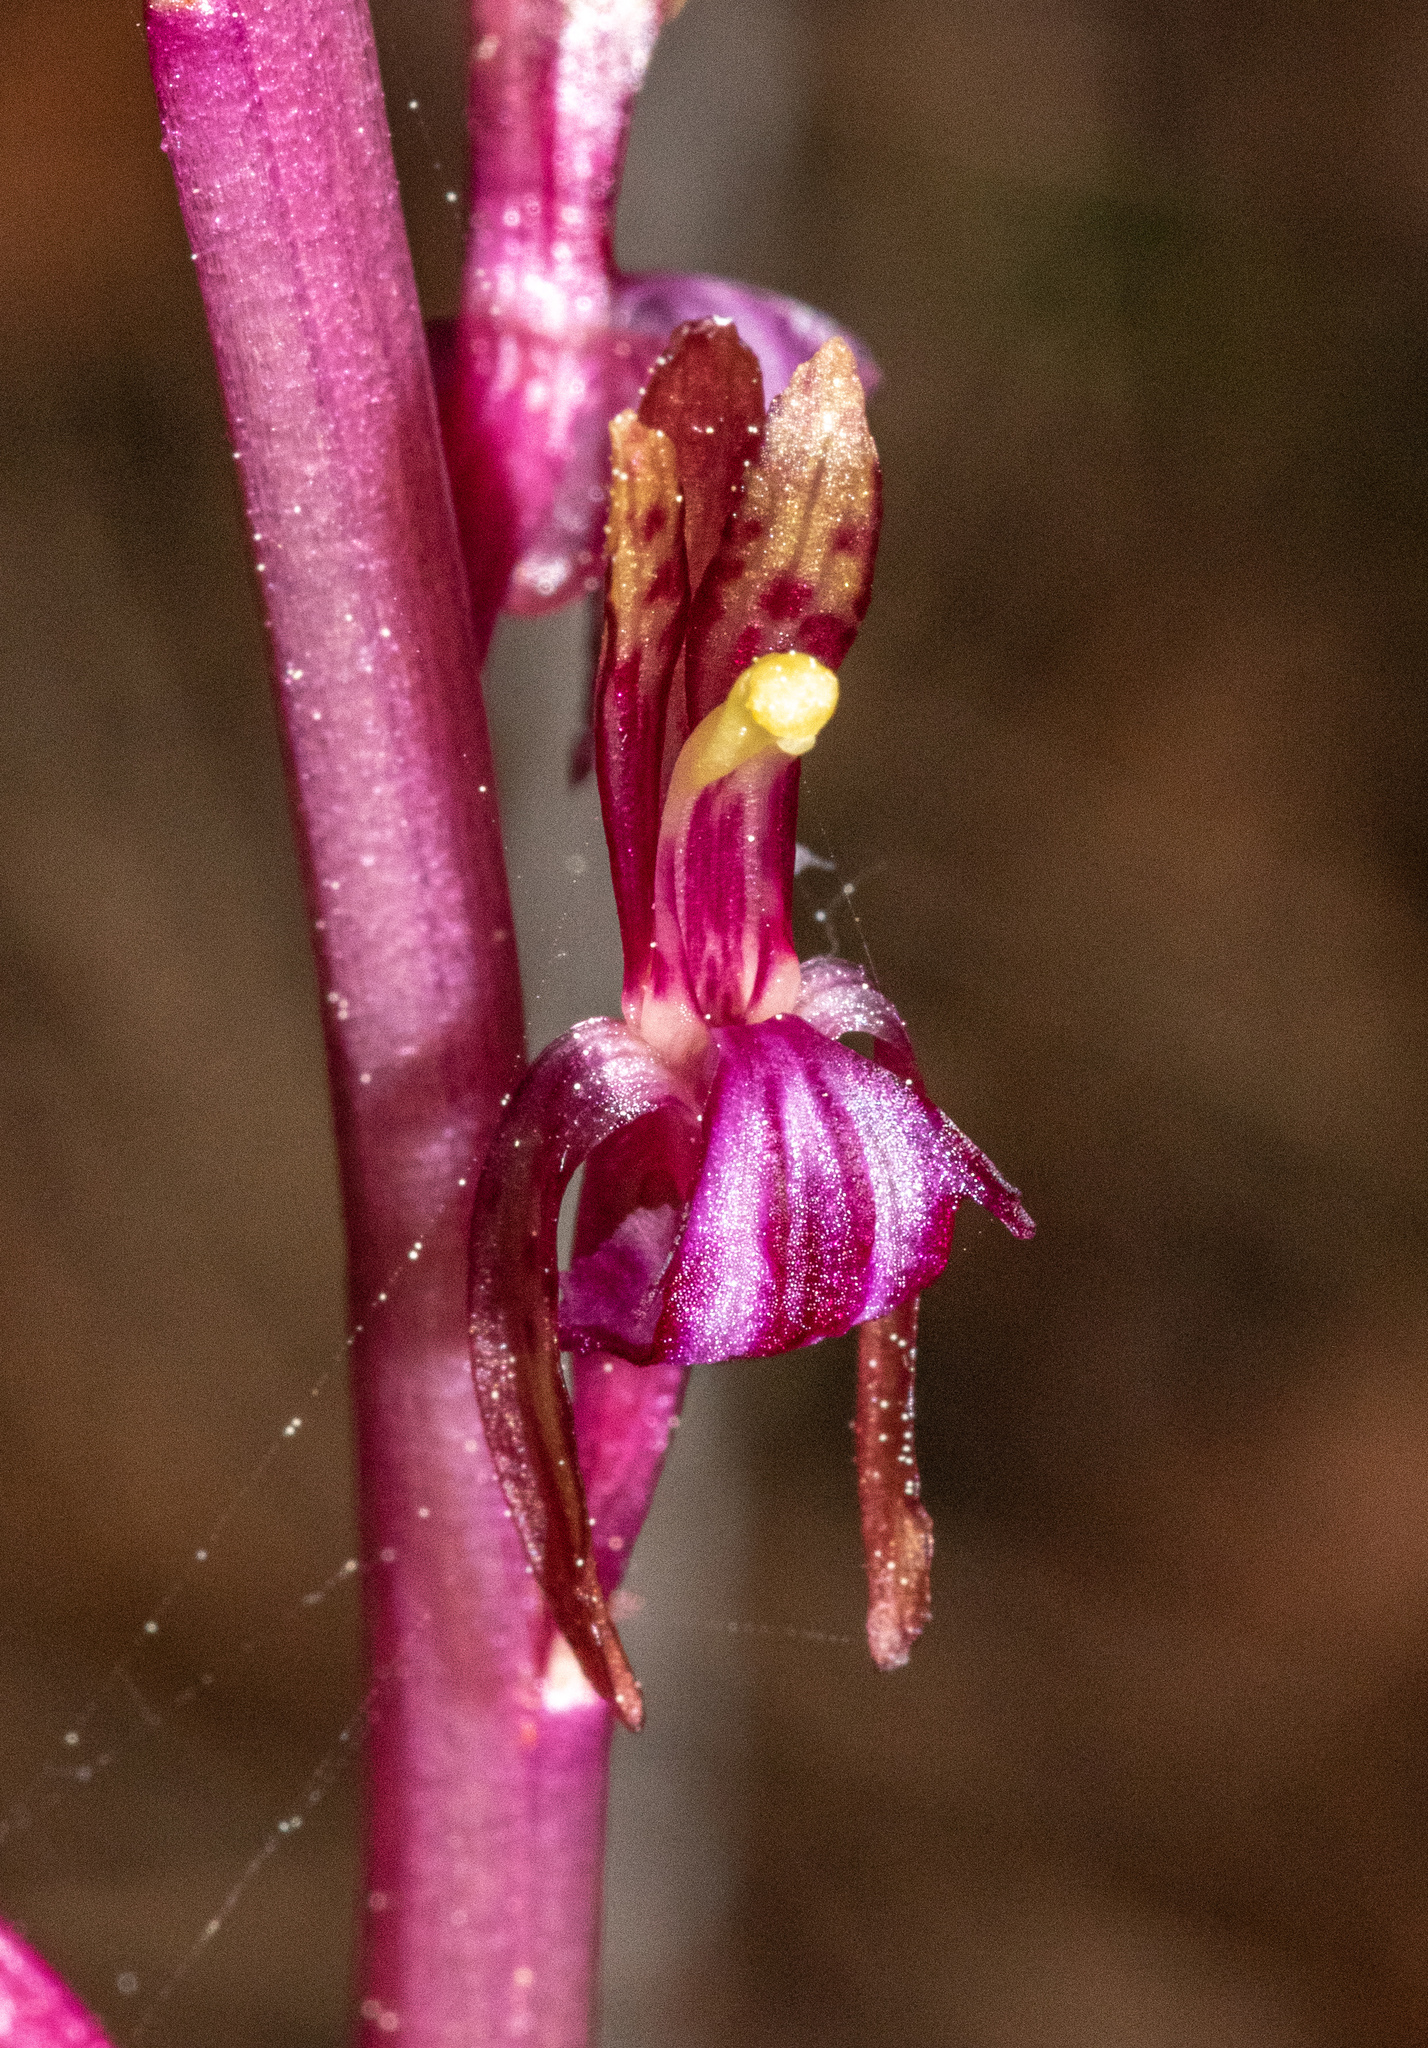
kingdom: Plantae
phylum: Tracheophyta
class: Liliopsida
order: Asparagales
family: Orchidaceae
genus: Corallorhiza
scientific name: Corallorhiza mertensiana
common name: Pacific coralroot
